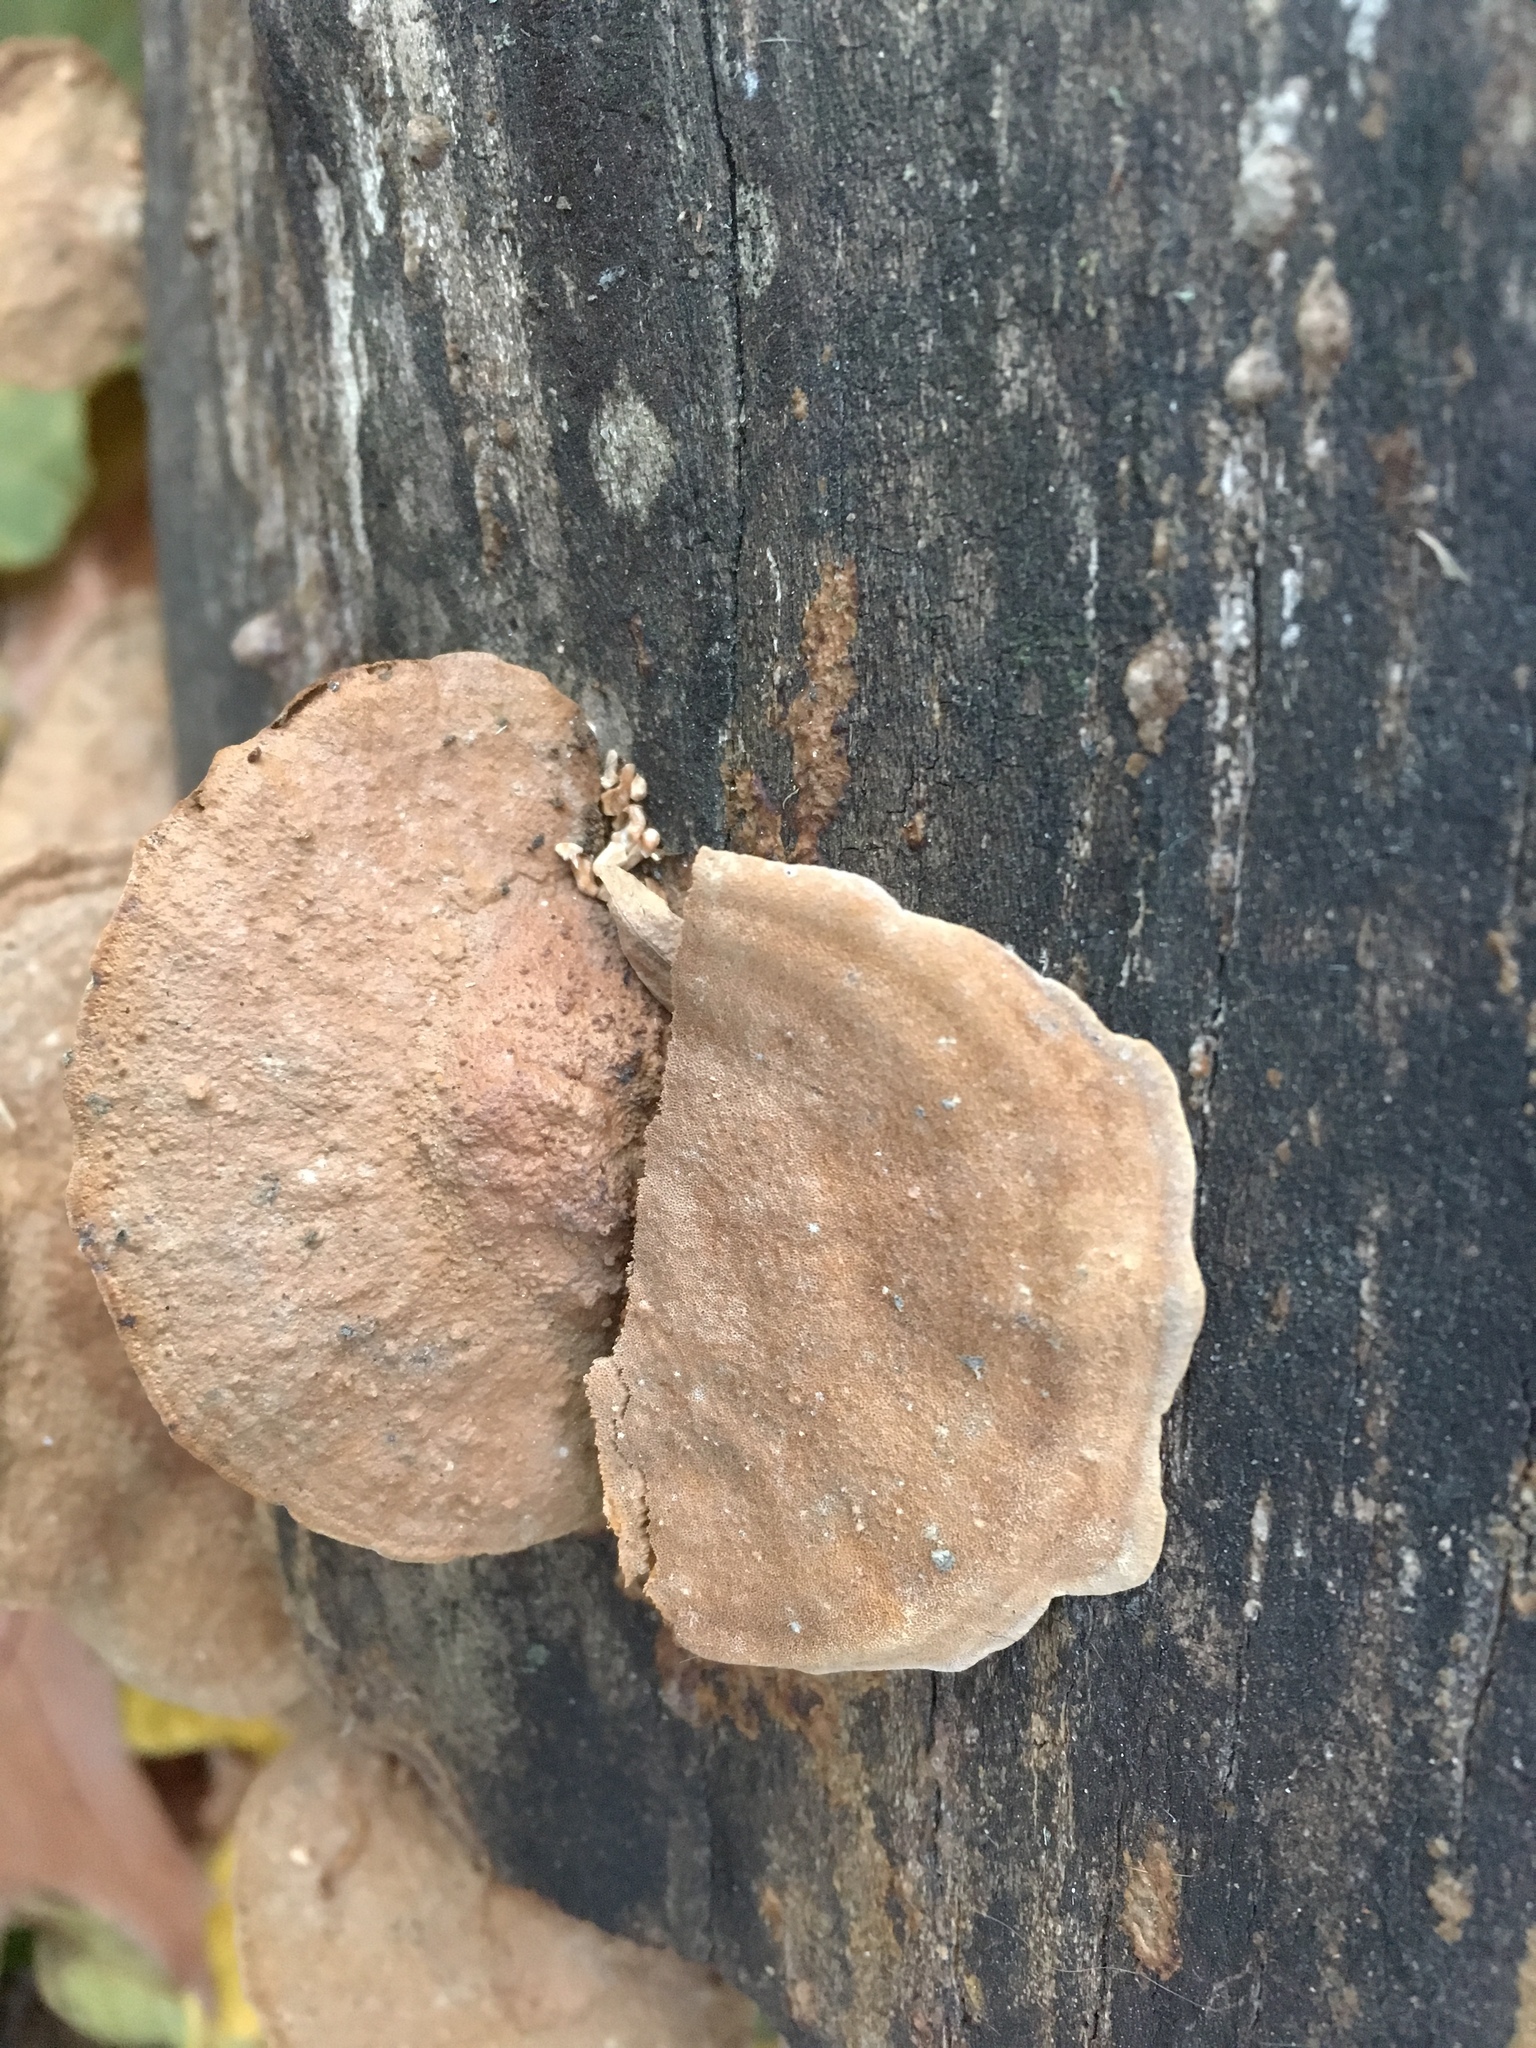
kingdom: Fungi
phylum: Basidiomycota
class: Agaricomycetes
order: Hymenochaetales
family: Hymenochaetaceae
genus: Phellinus
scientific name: Phellinus gilvus
